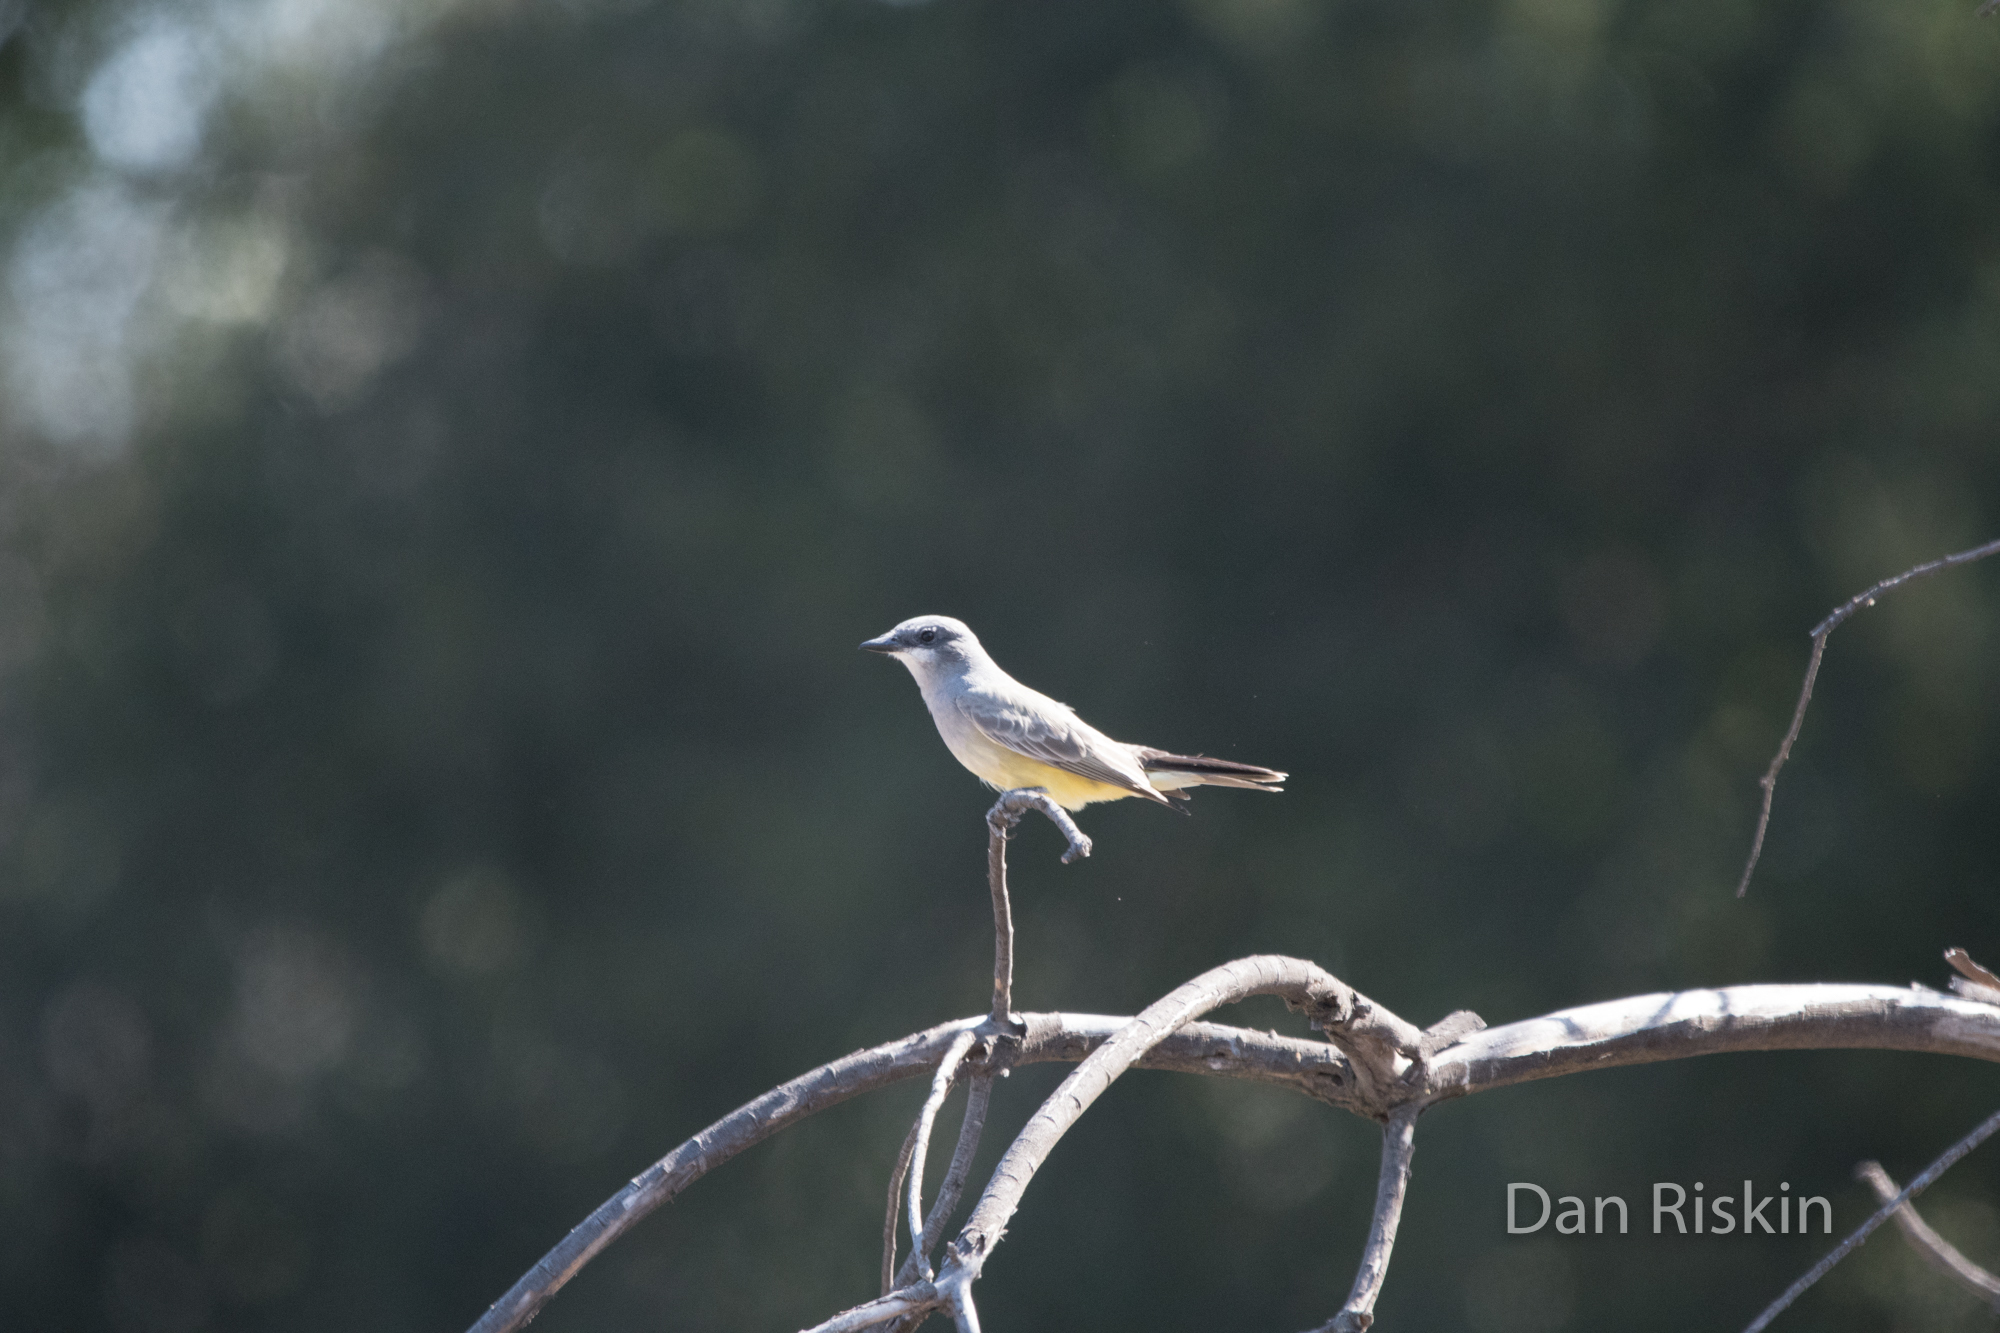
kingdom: Animalia
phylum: Chordata
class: Aves
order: Passeriformes
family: Tyrannidae
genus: Tyrannus
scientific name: Tyrannus vociferans
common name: Cassin's kingbird
